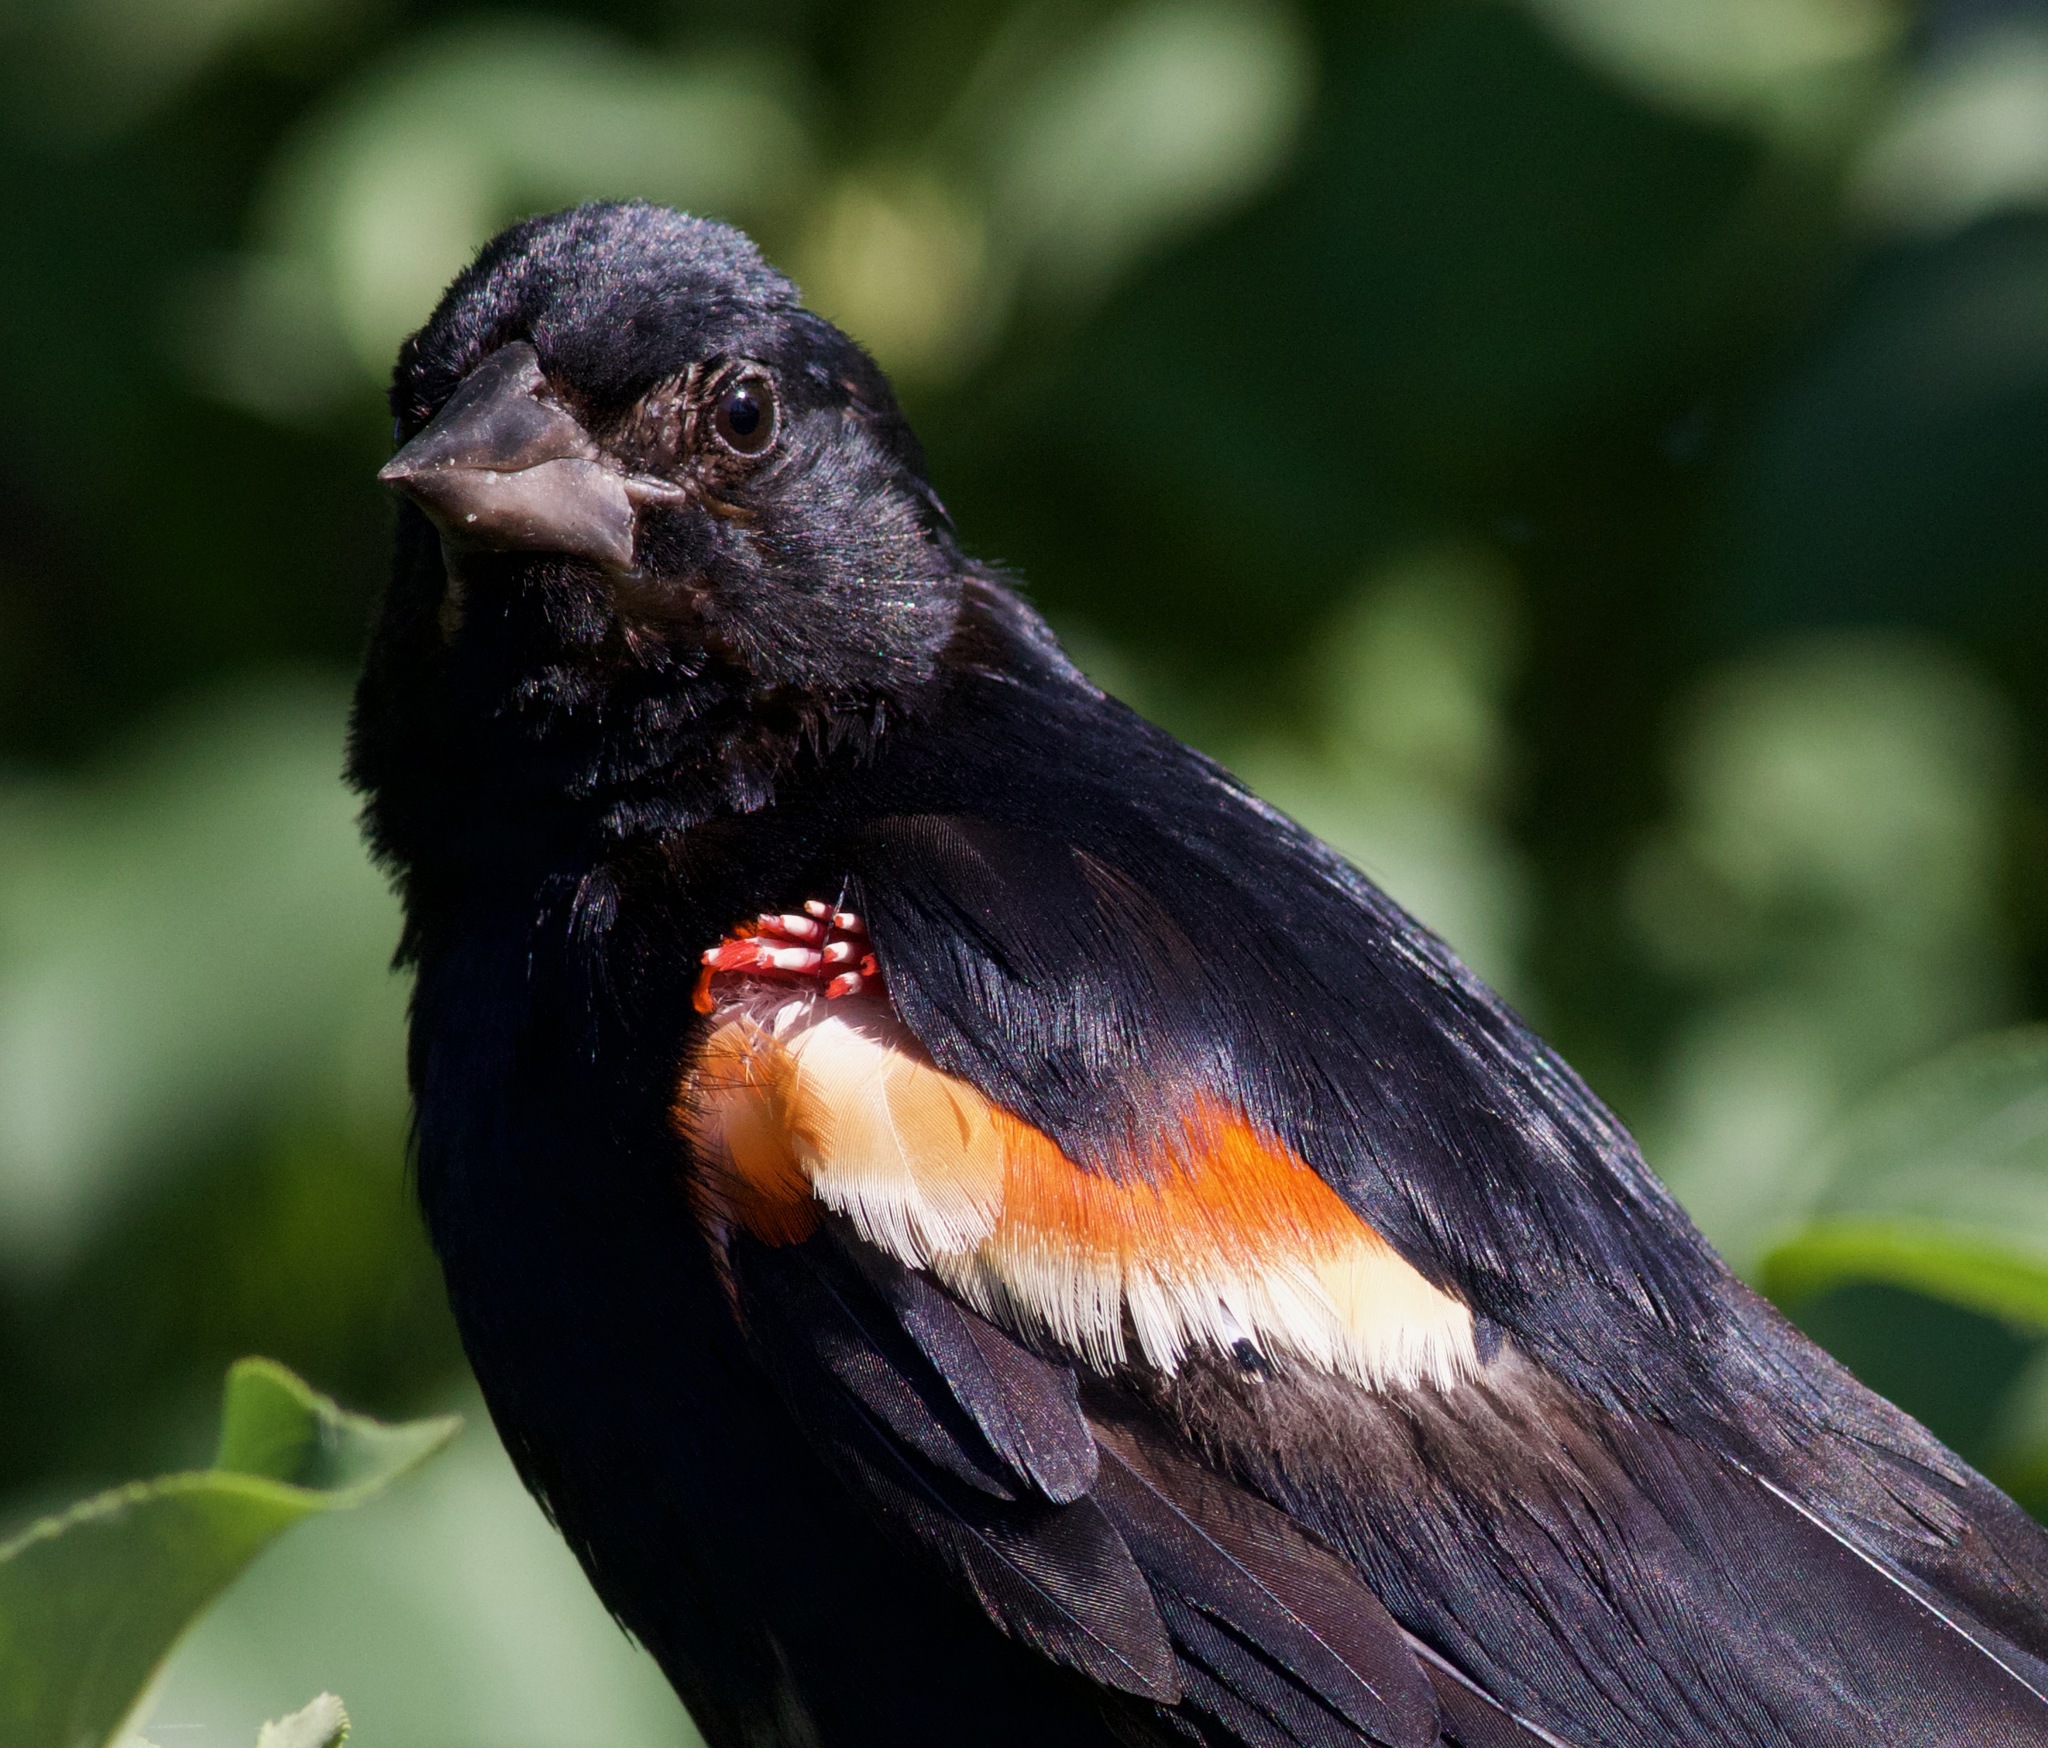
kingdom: Animalia
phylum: Chordata
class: Aves
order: Passeriformes
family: Icteridae
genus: Agelaius
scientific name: Agelaius phoeniceus
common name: Red-winged blackbird
